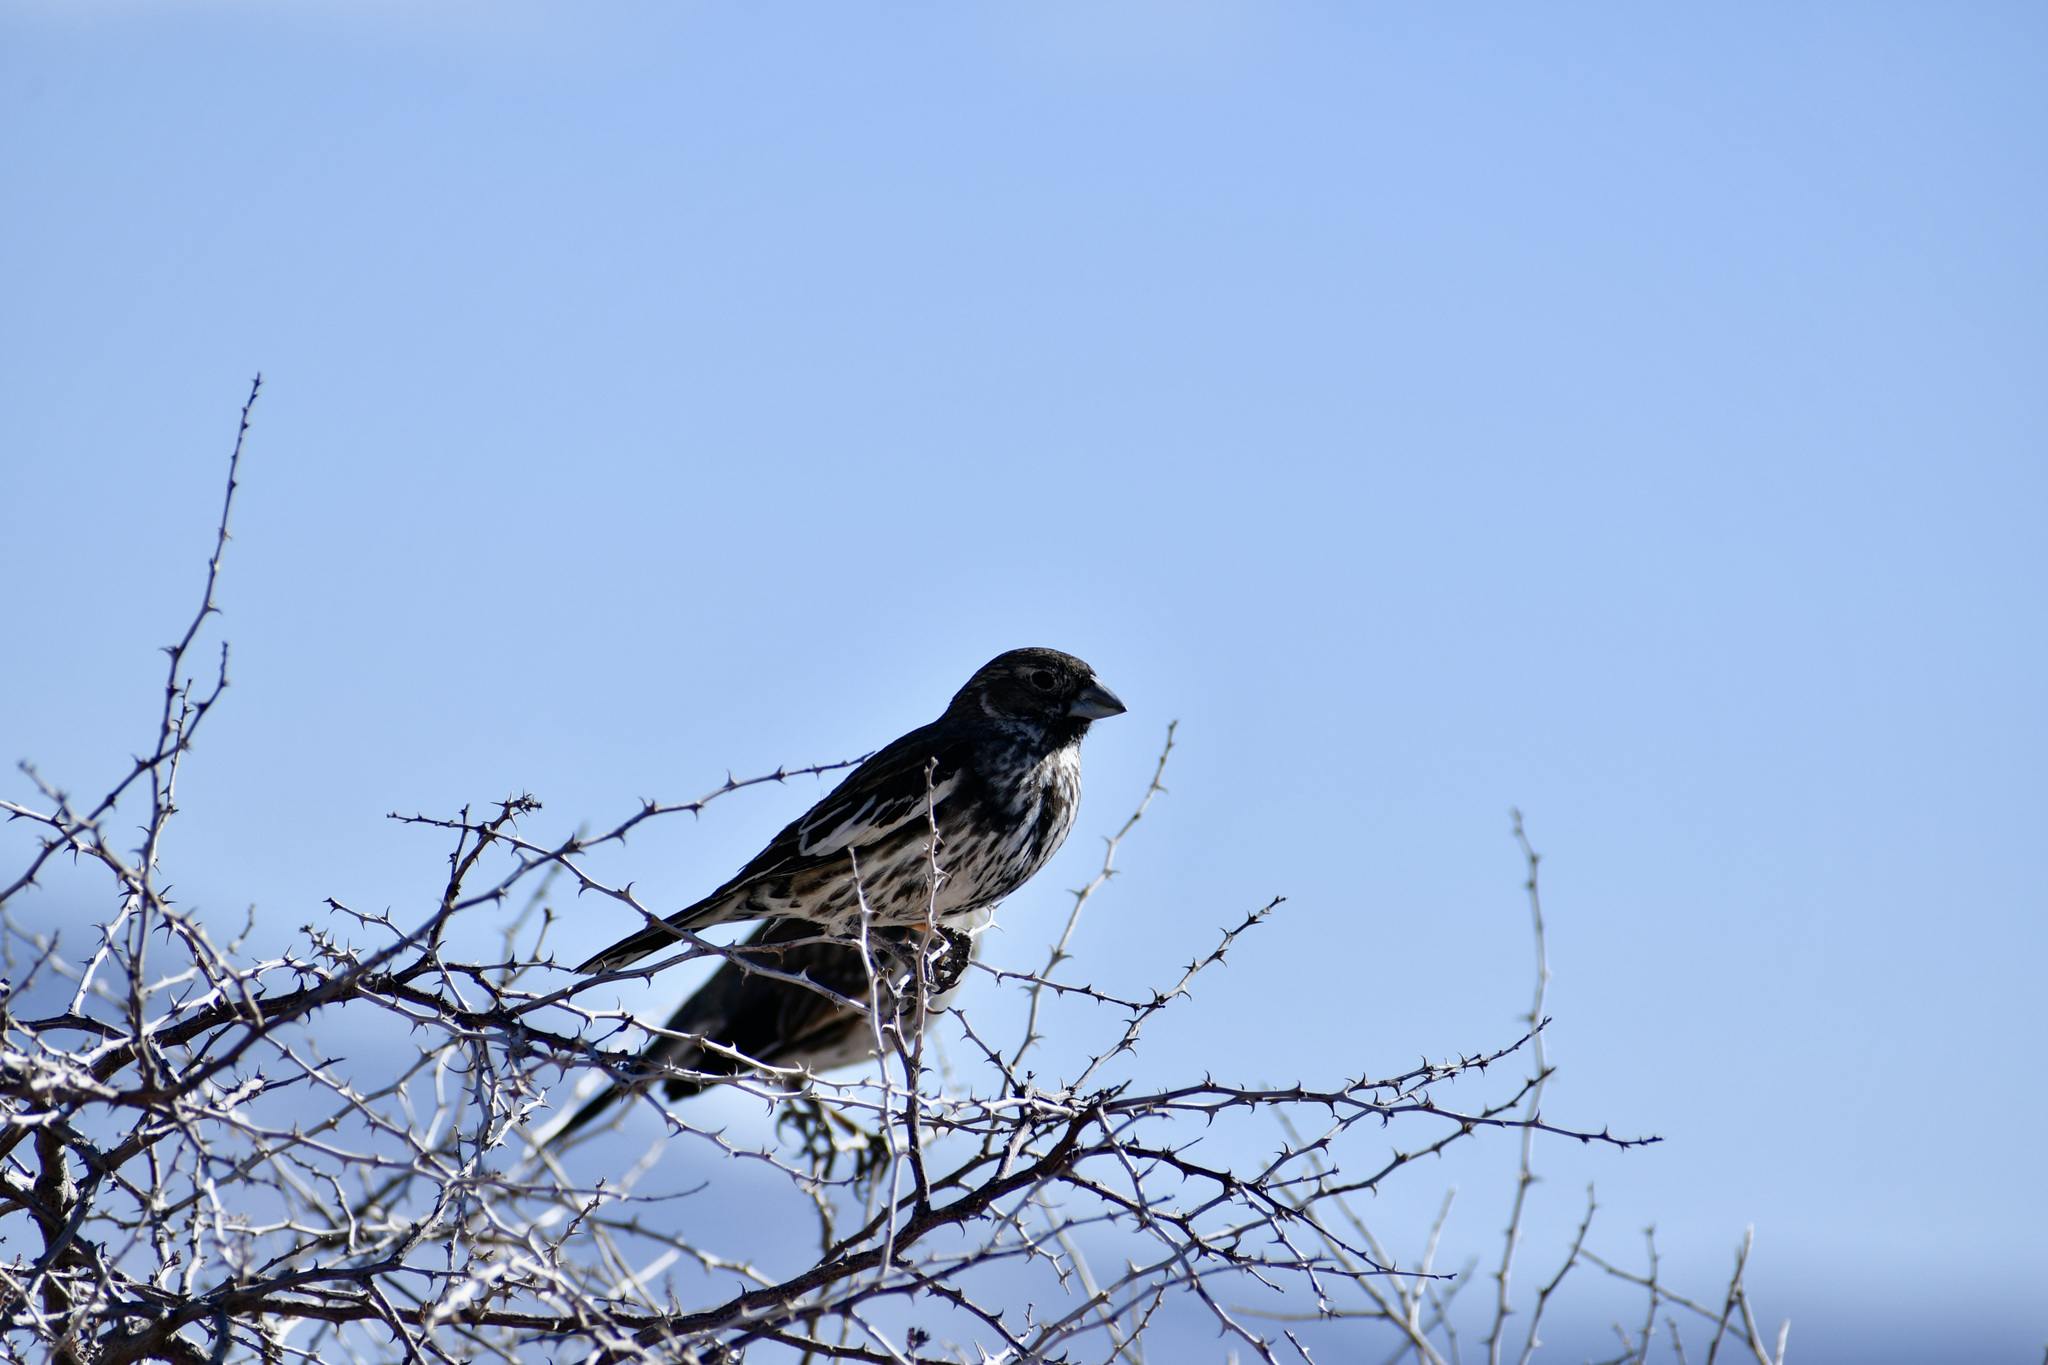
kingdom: Animalia
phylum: Chordata
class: Aves
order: Passeriformes
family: Passerellidae
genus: Calamospiza
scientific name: Calamospiza melanocorys
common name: Lark bunting
